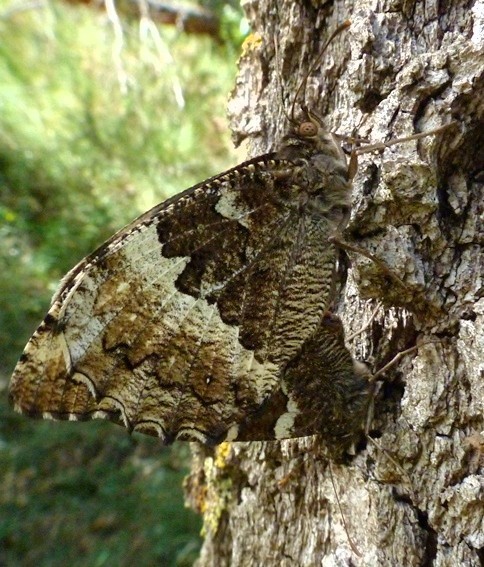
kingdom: Animalia
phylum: Arthropoda
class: Insecta
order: Lepidoptera
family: Lycaenidae
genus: Loweia
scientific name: Loweia tityrus
